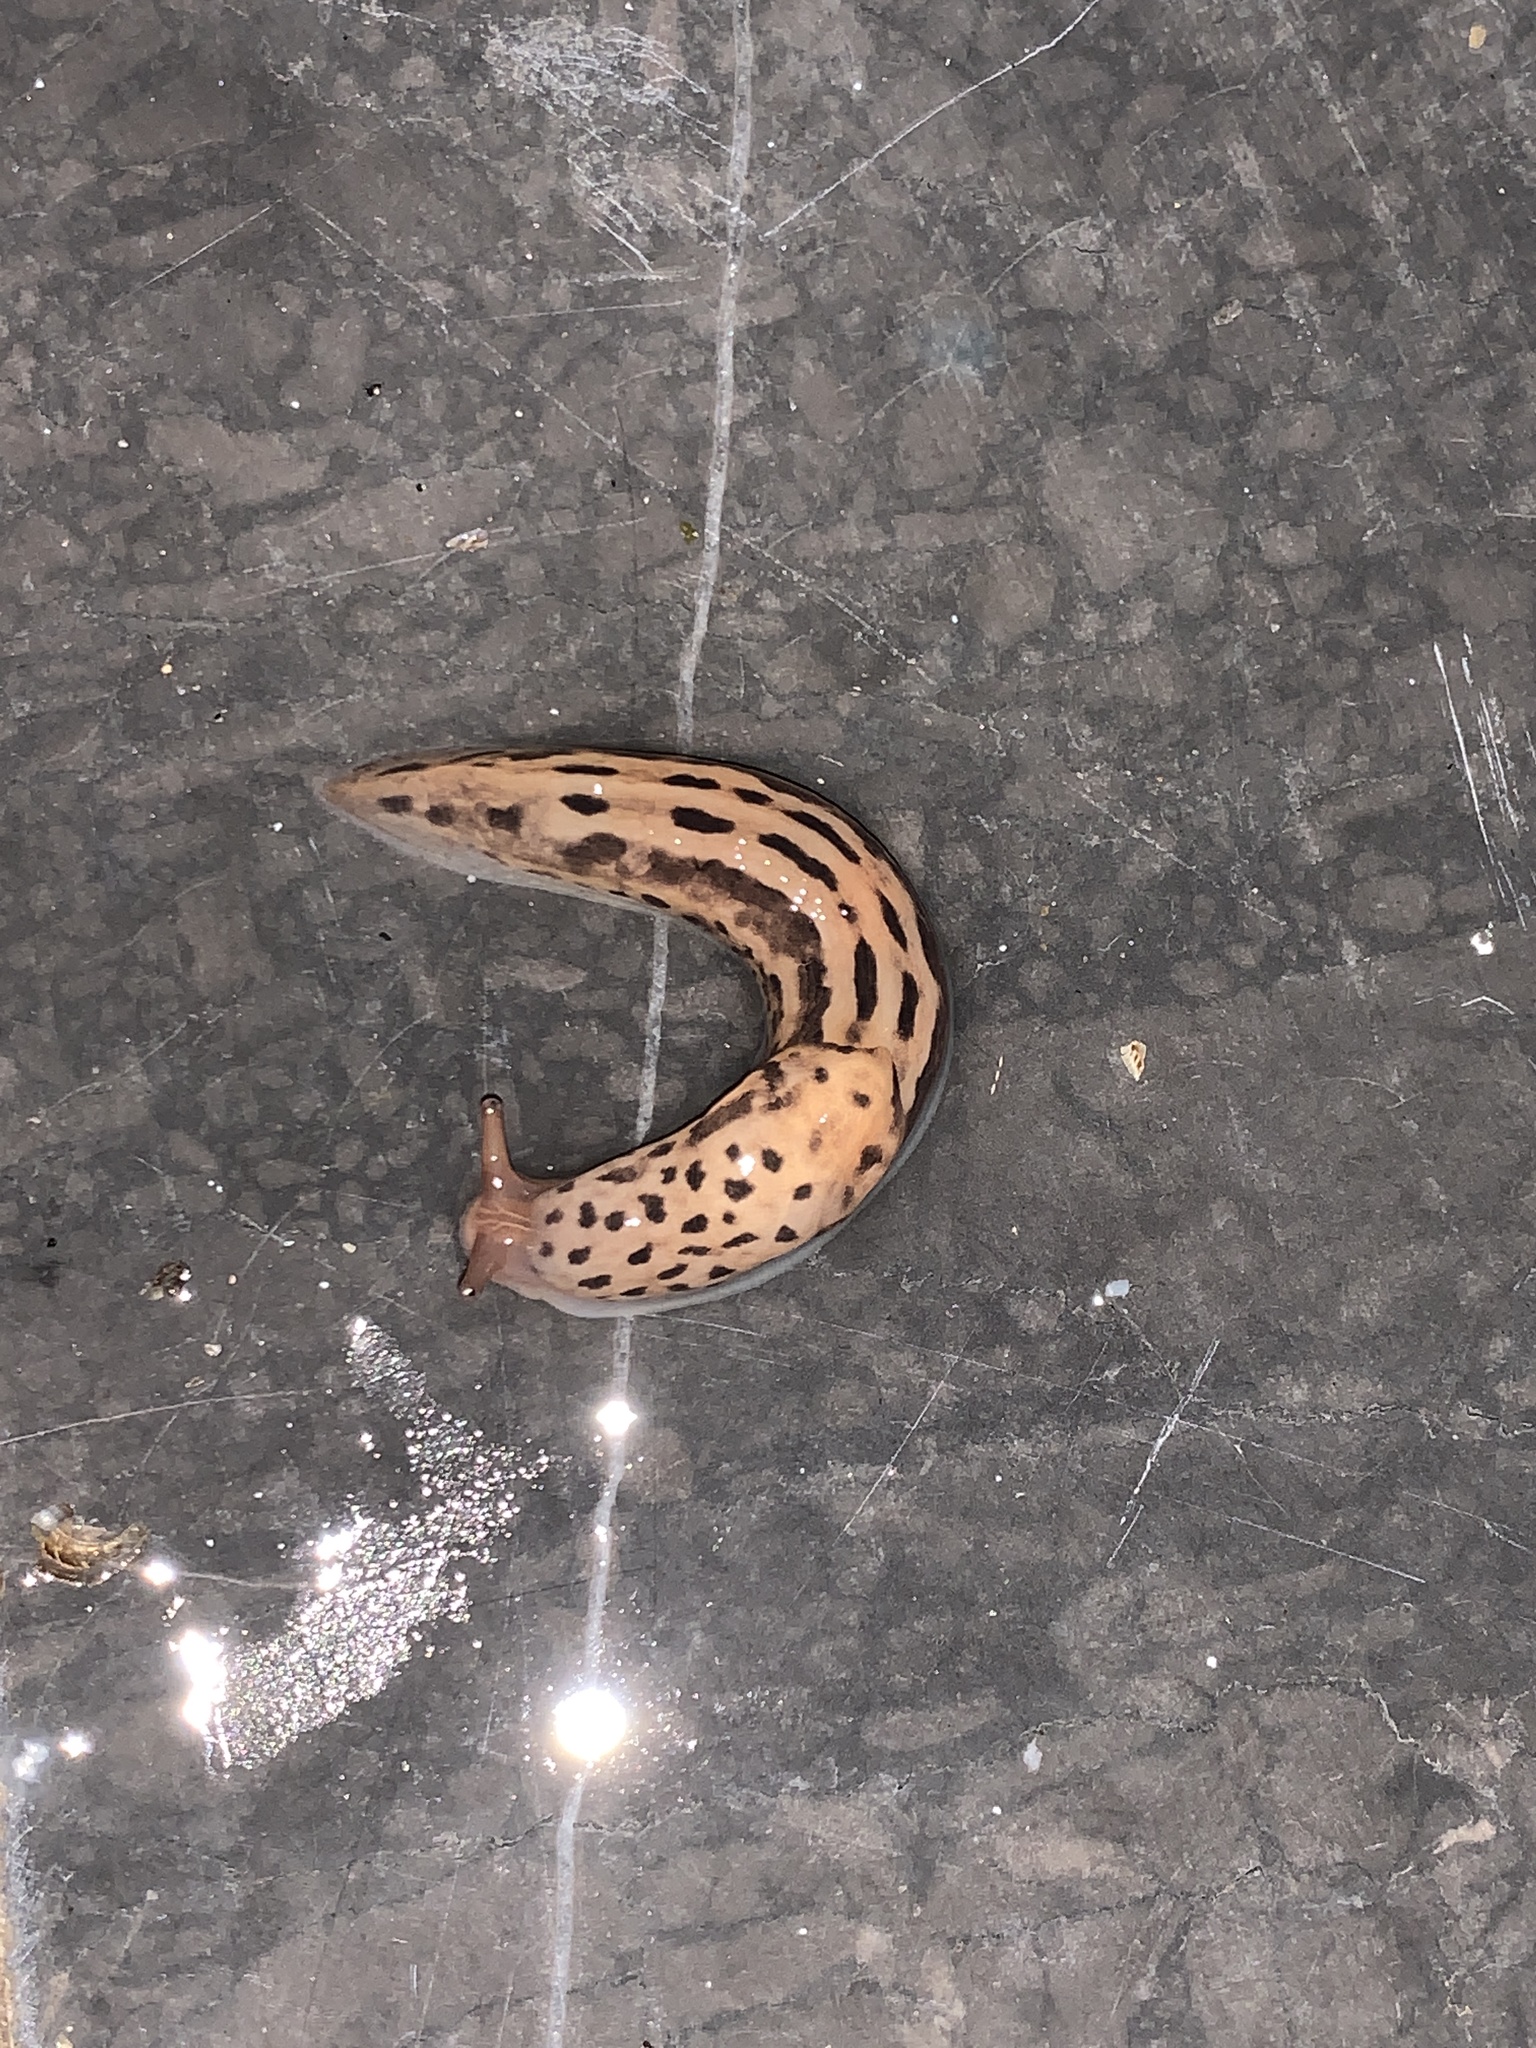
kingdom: Animalia
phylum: Mollusca
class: Gastropoda
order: Stylommatophora
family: Limacidae
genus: Limax
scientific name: Limax maximus
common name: Great grey slug
